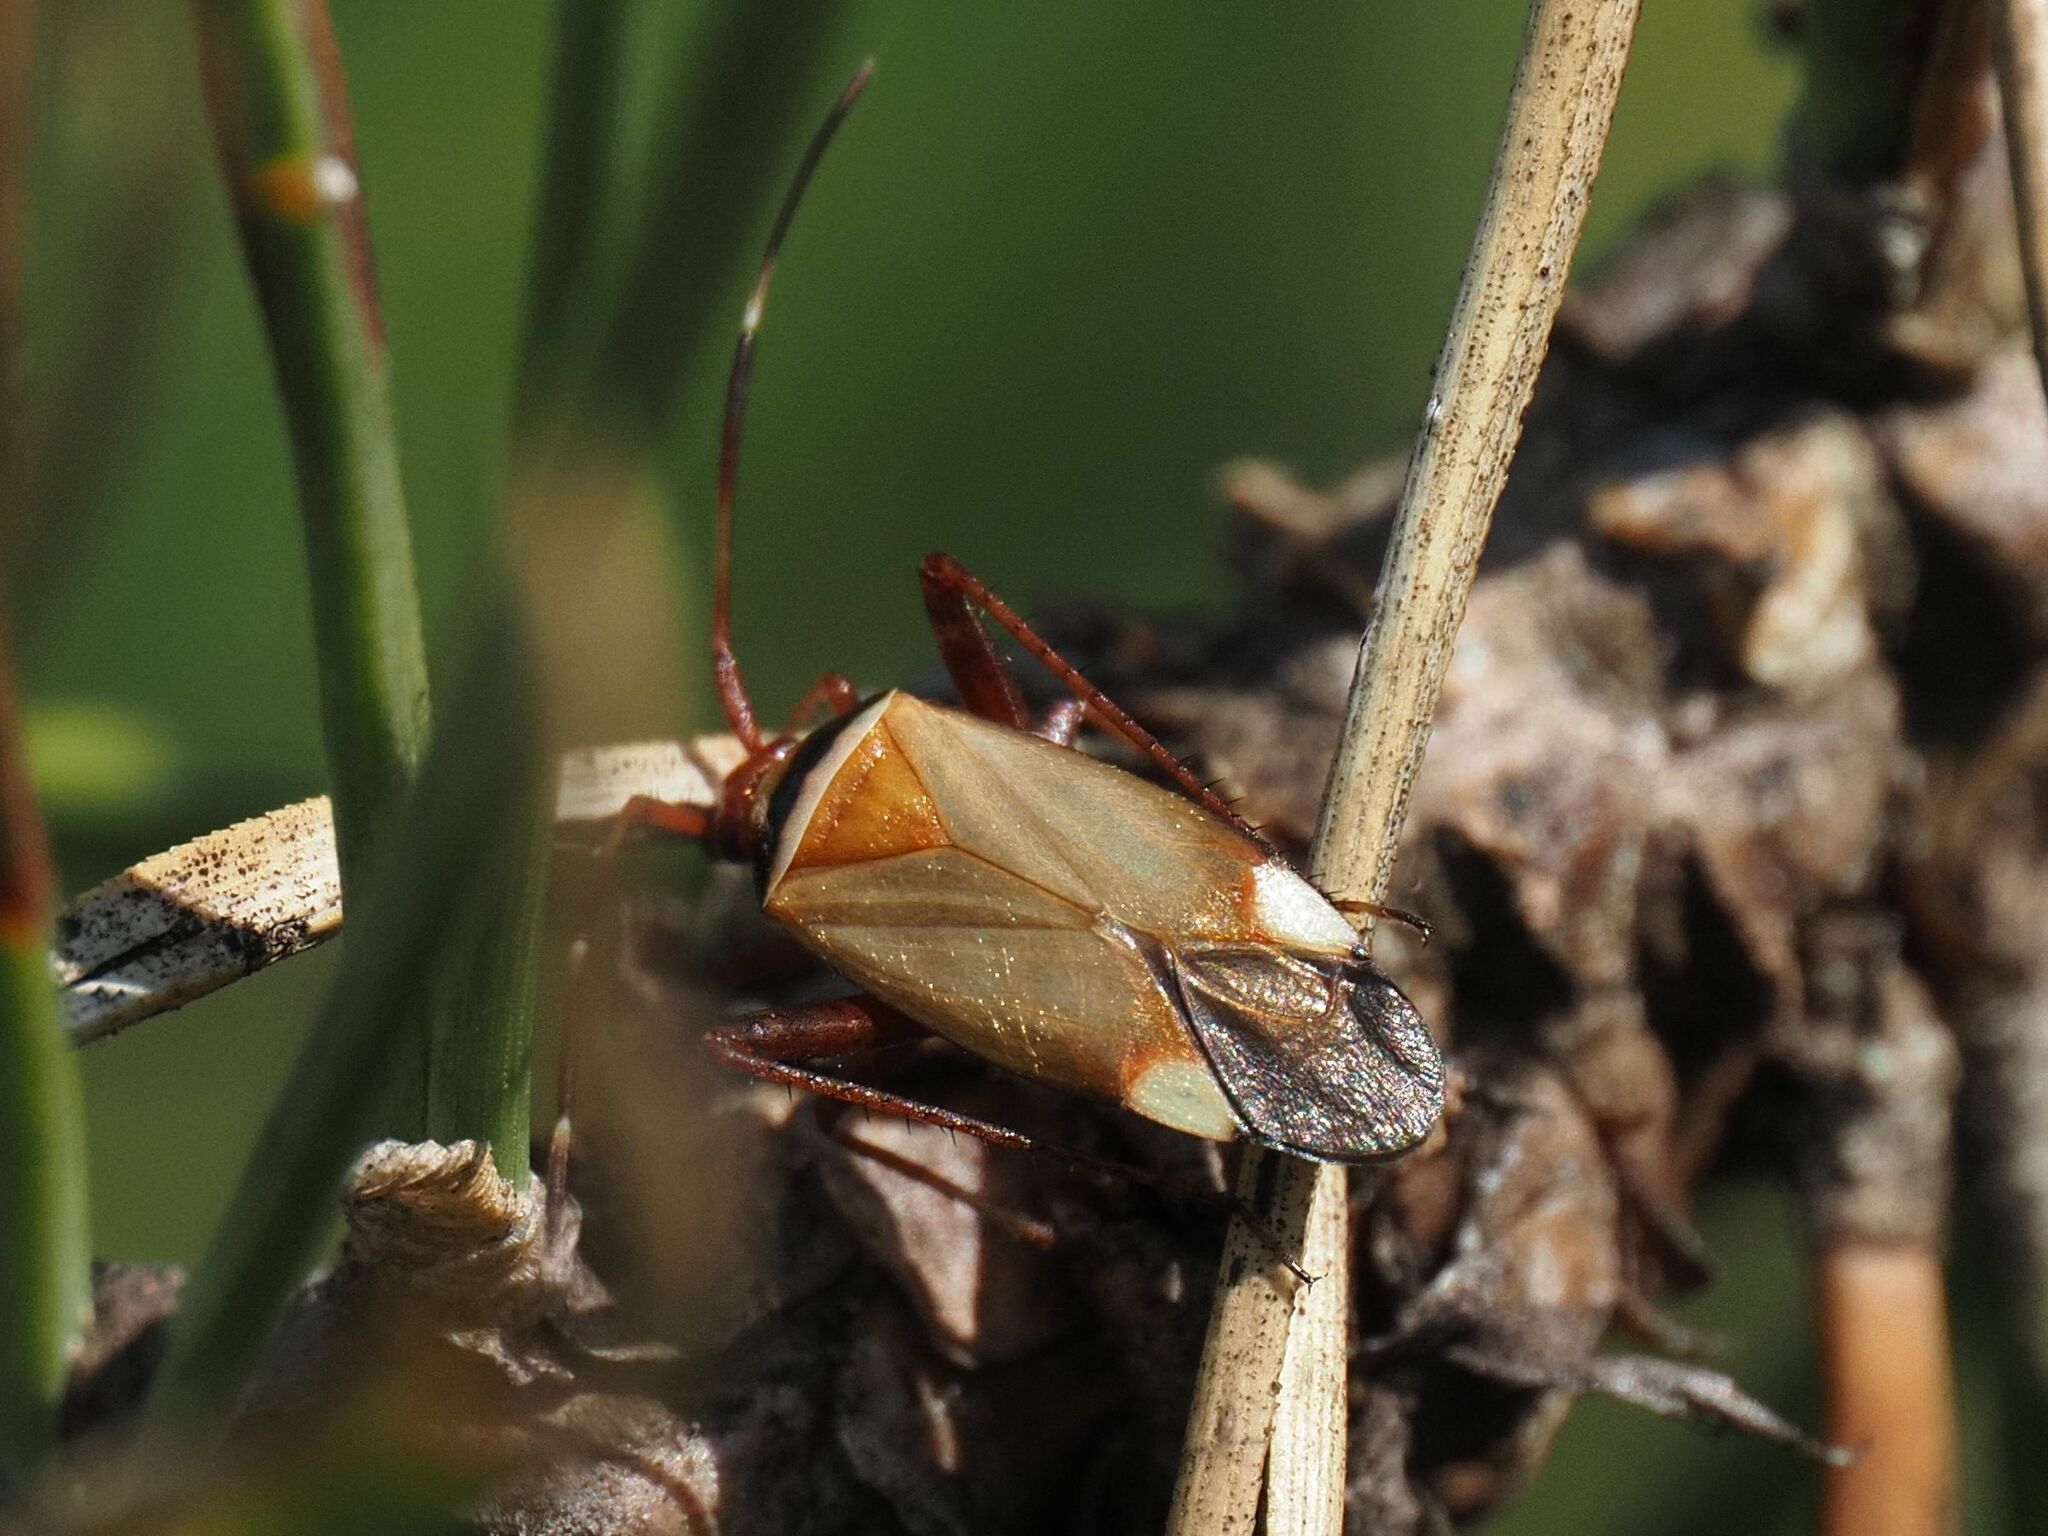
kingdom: Animalia
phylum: Arthropoda
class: Insecta
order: Hemiptera
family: Miridae
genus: Adelphocoris
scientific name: Adelphocoris vandalicus
